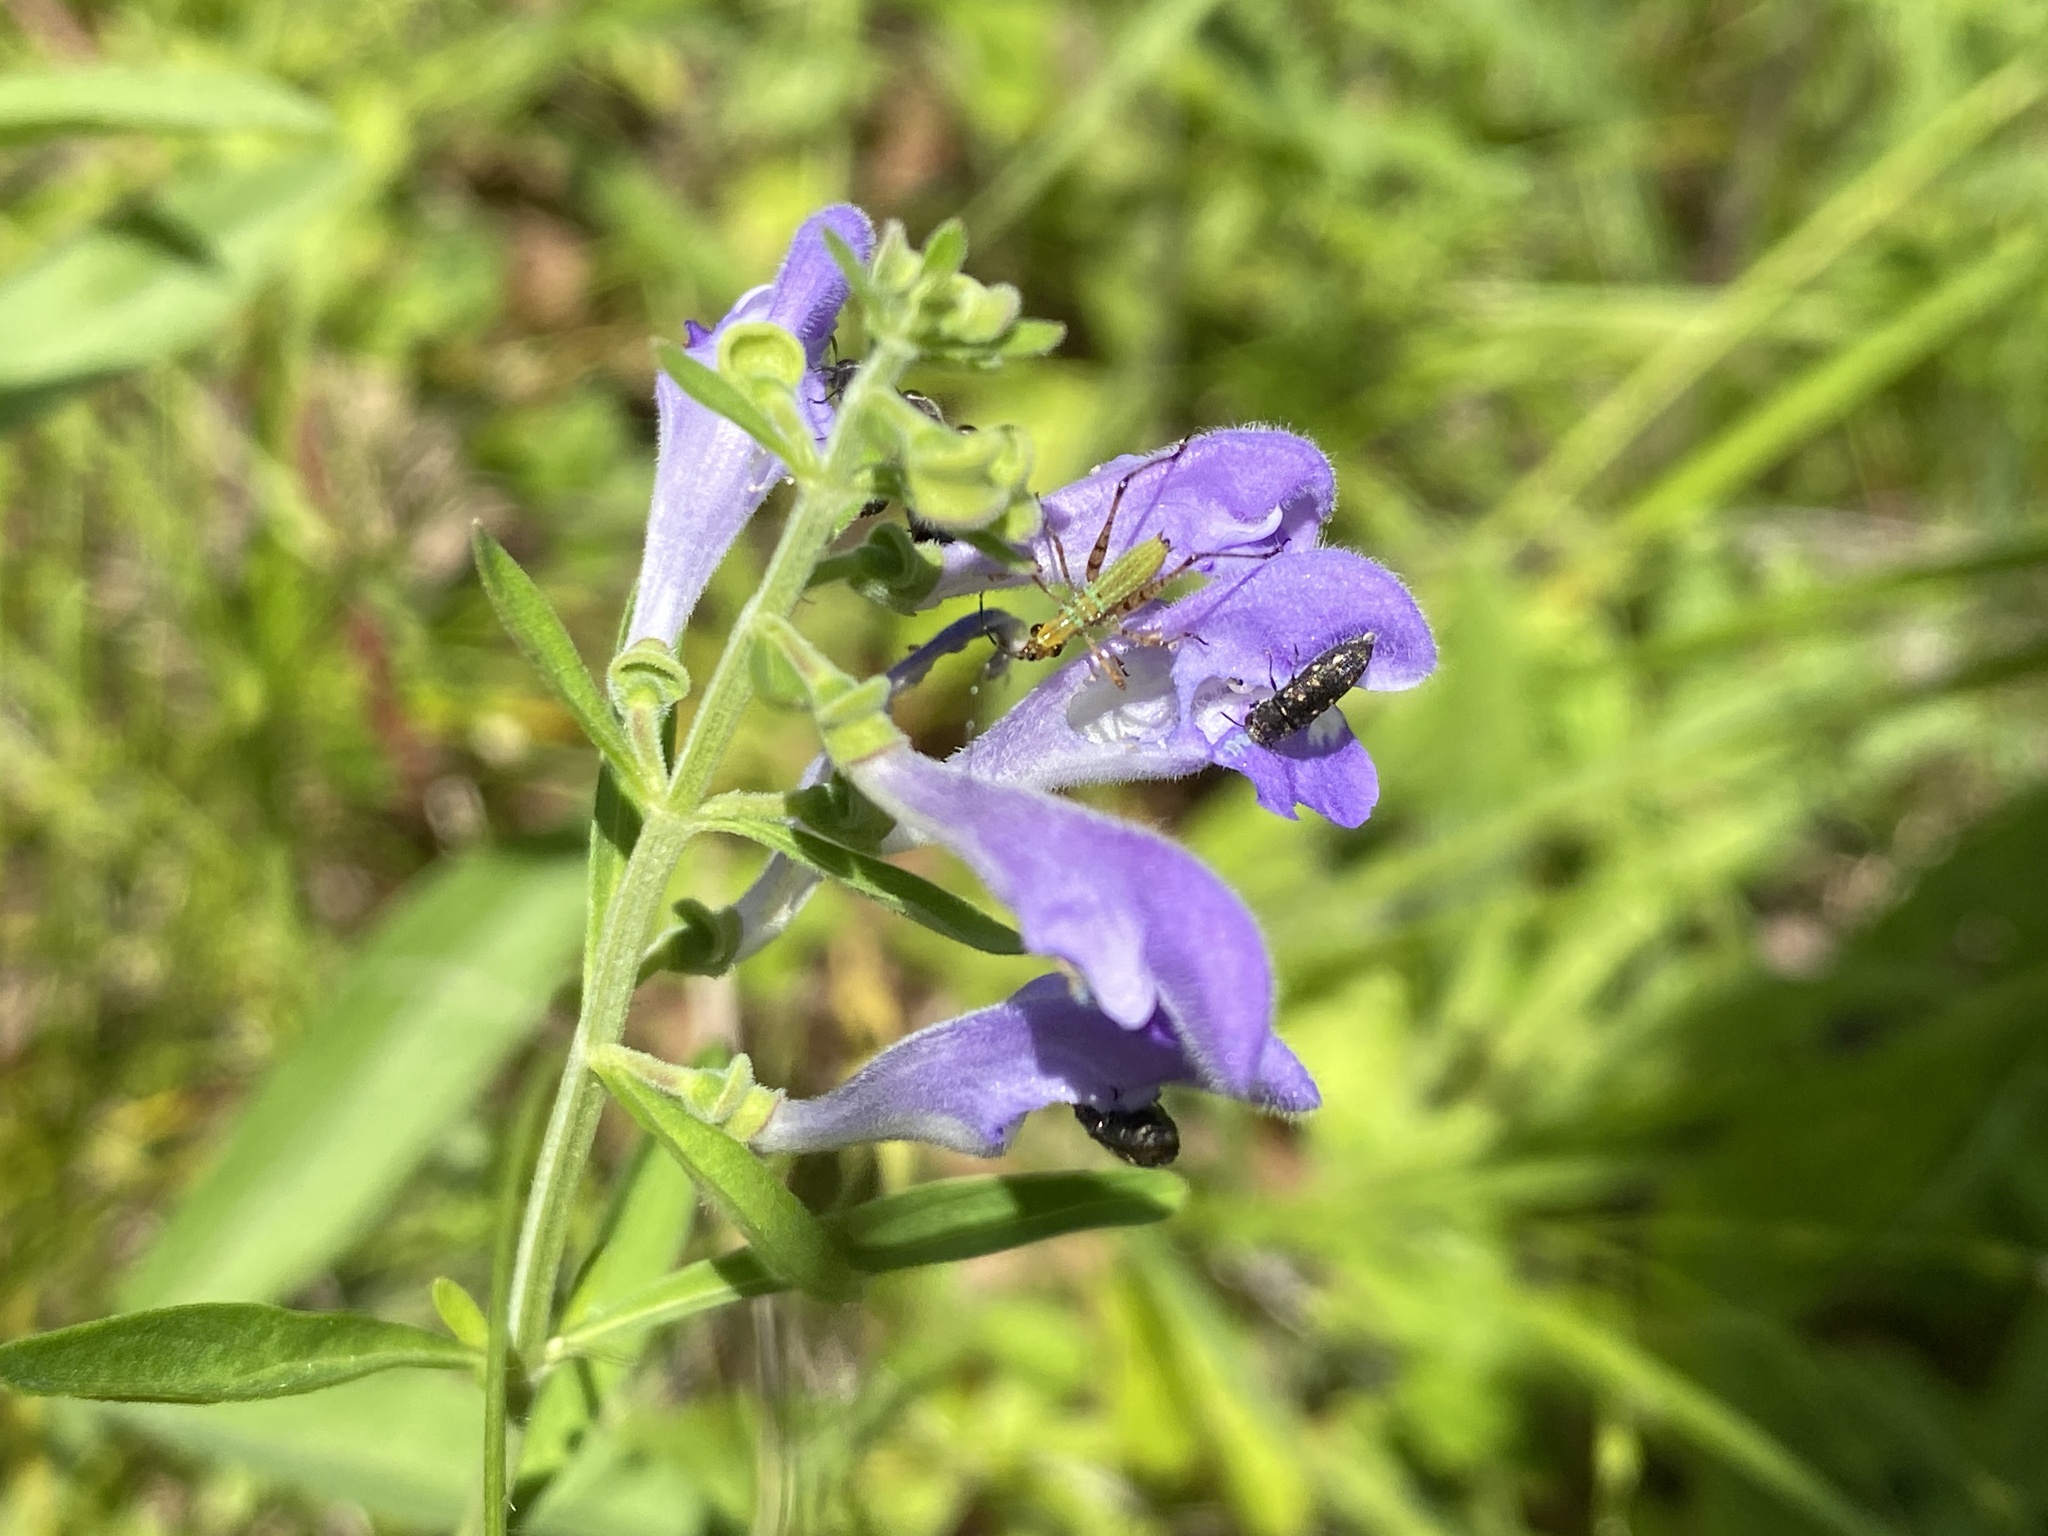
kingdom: Plantae
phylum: Tracheophyta
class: Magnoliopsida
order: Lamiales
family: Lamiaceae
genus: Scutellaria
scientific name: Scutellaria integrifolia
